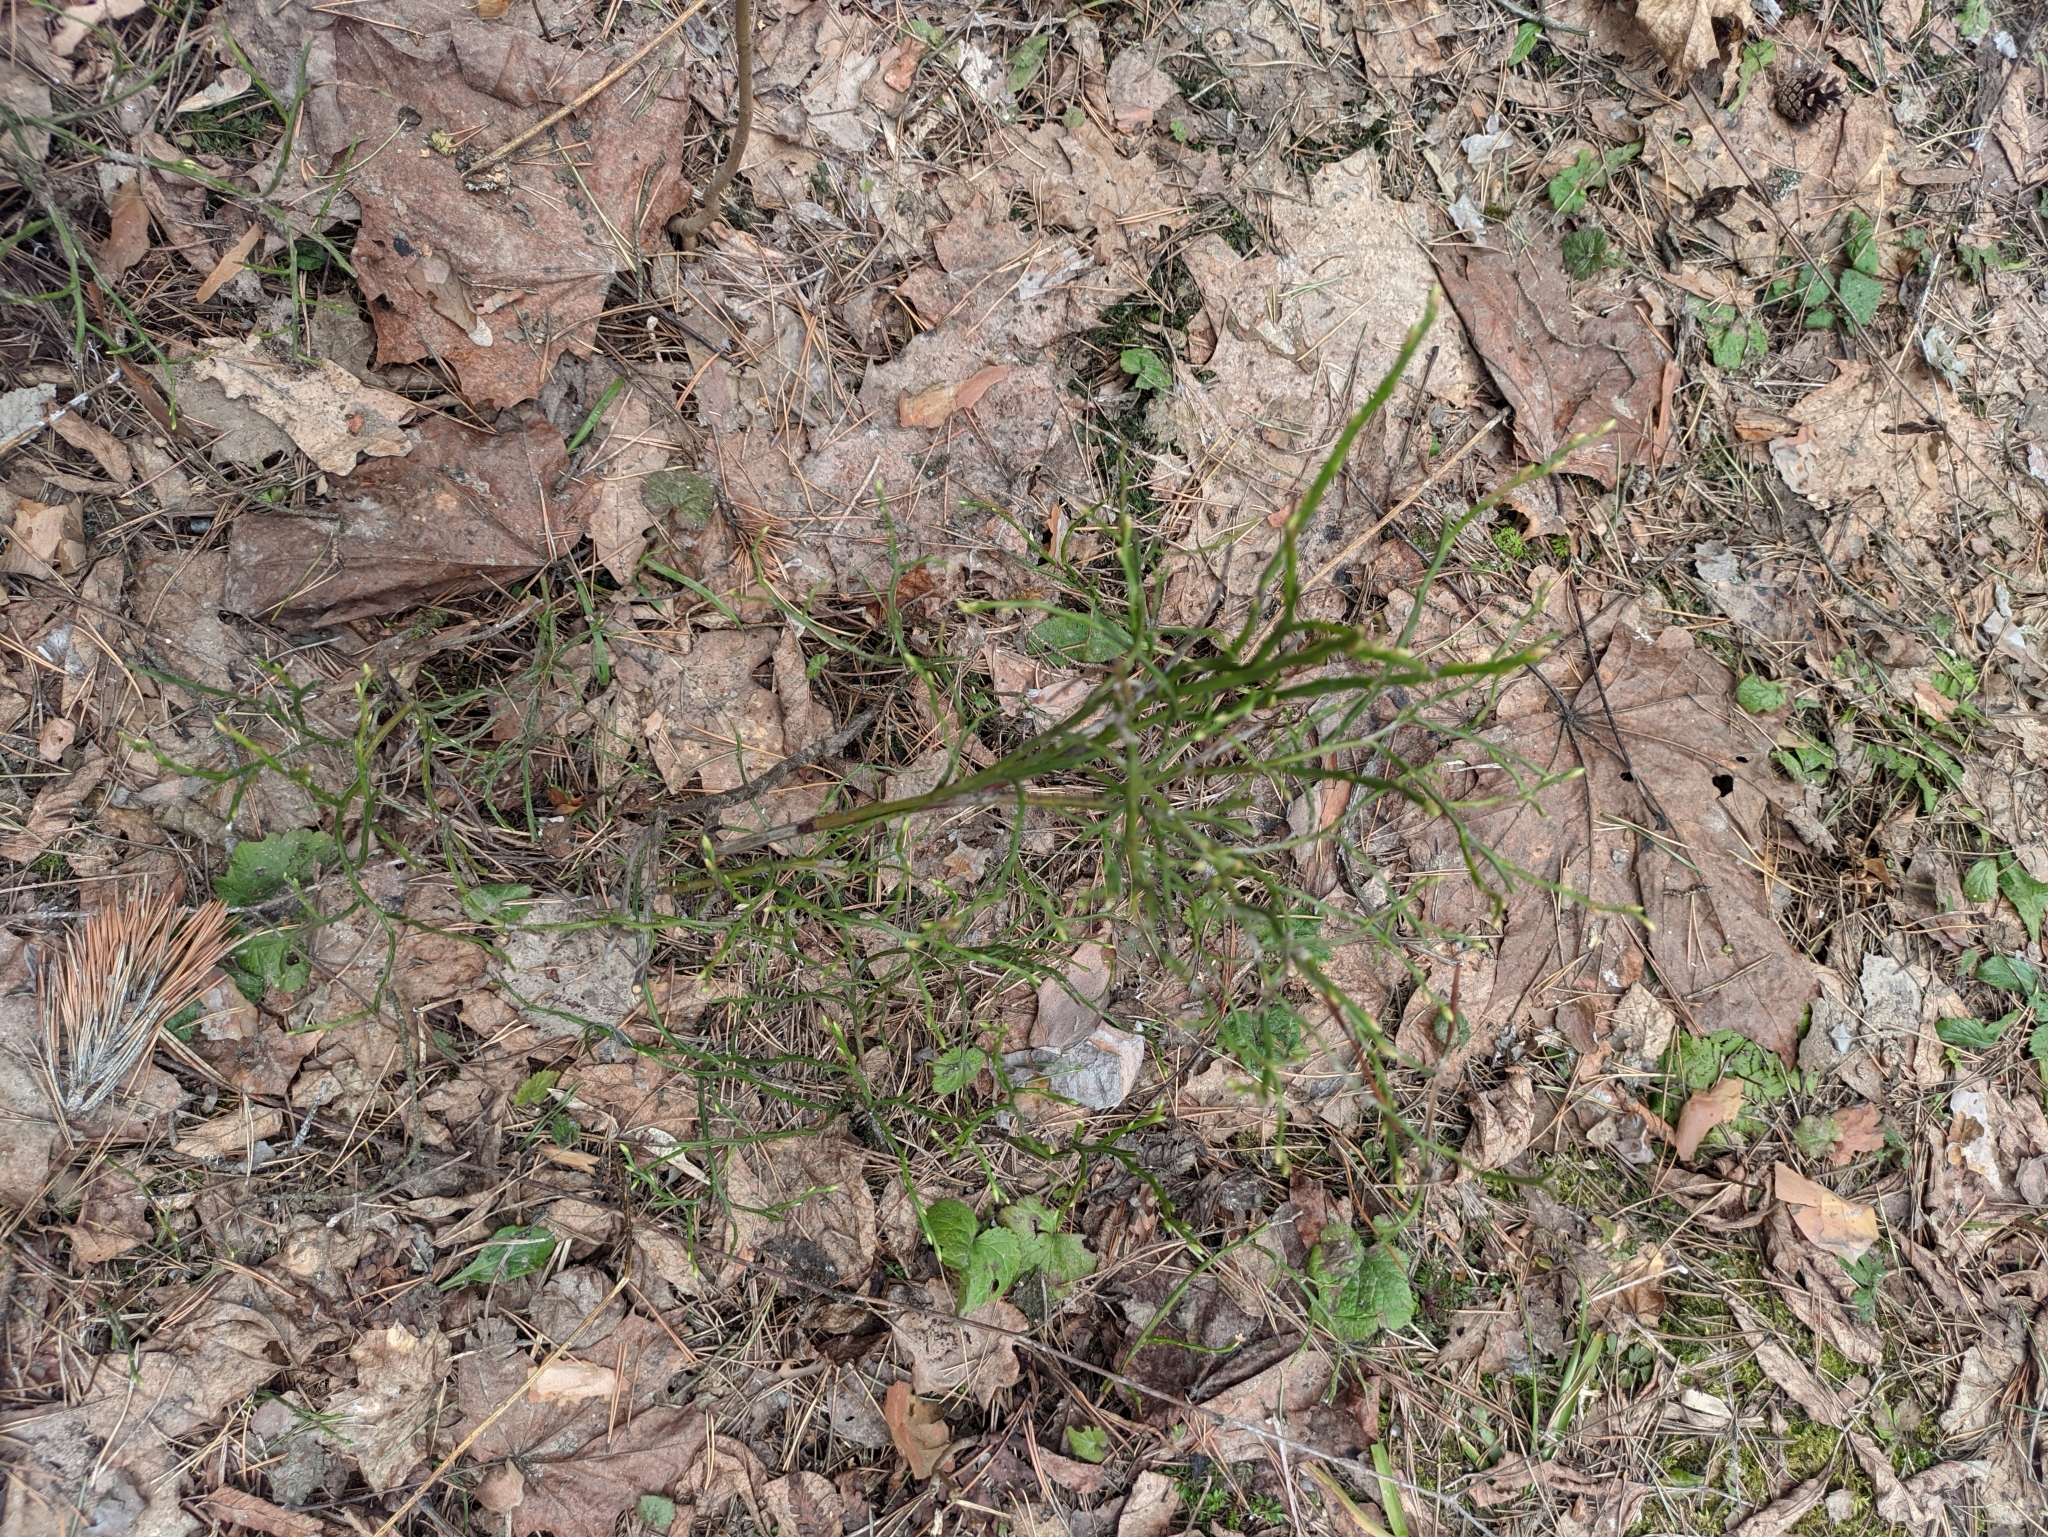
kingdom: Plantae
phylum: Tracheophyta
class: Magnoliopsida
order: Ericales
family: Ericaceae
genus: Vaccinium
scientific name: Vaccinium myrtillus
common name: Bilberry
